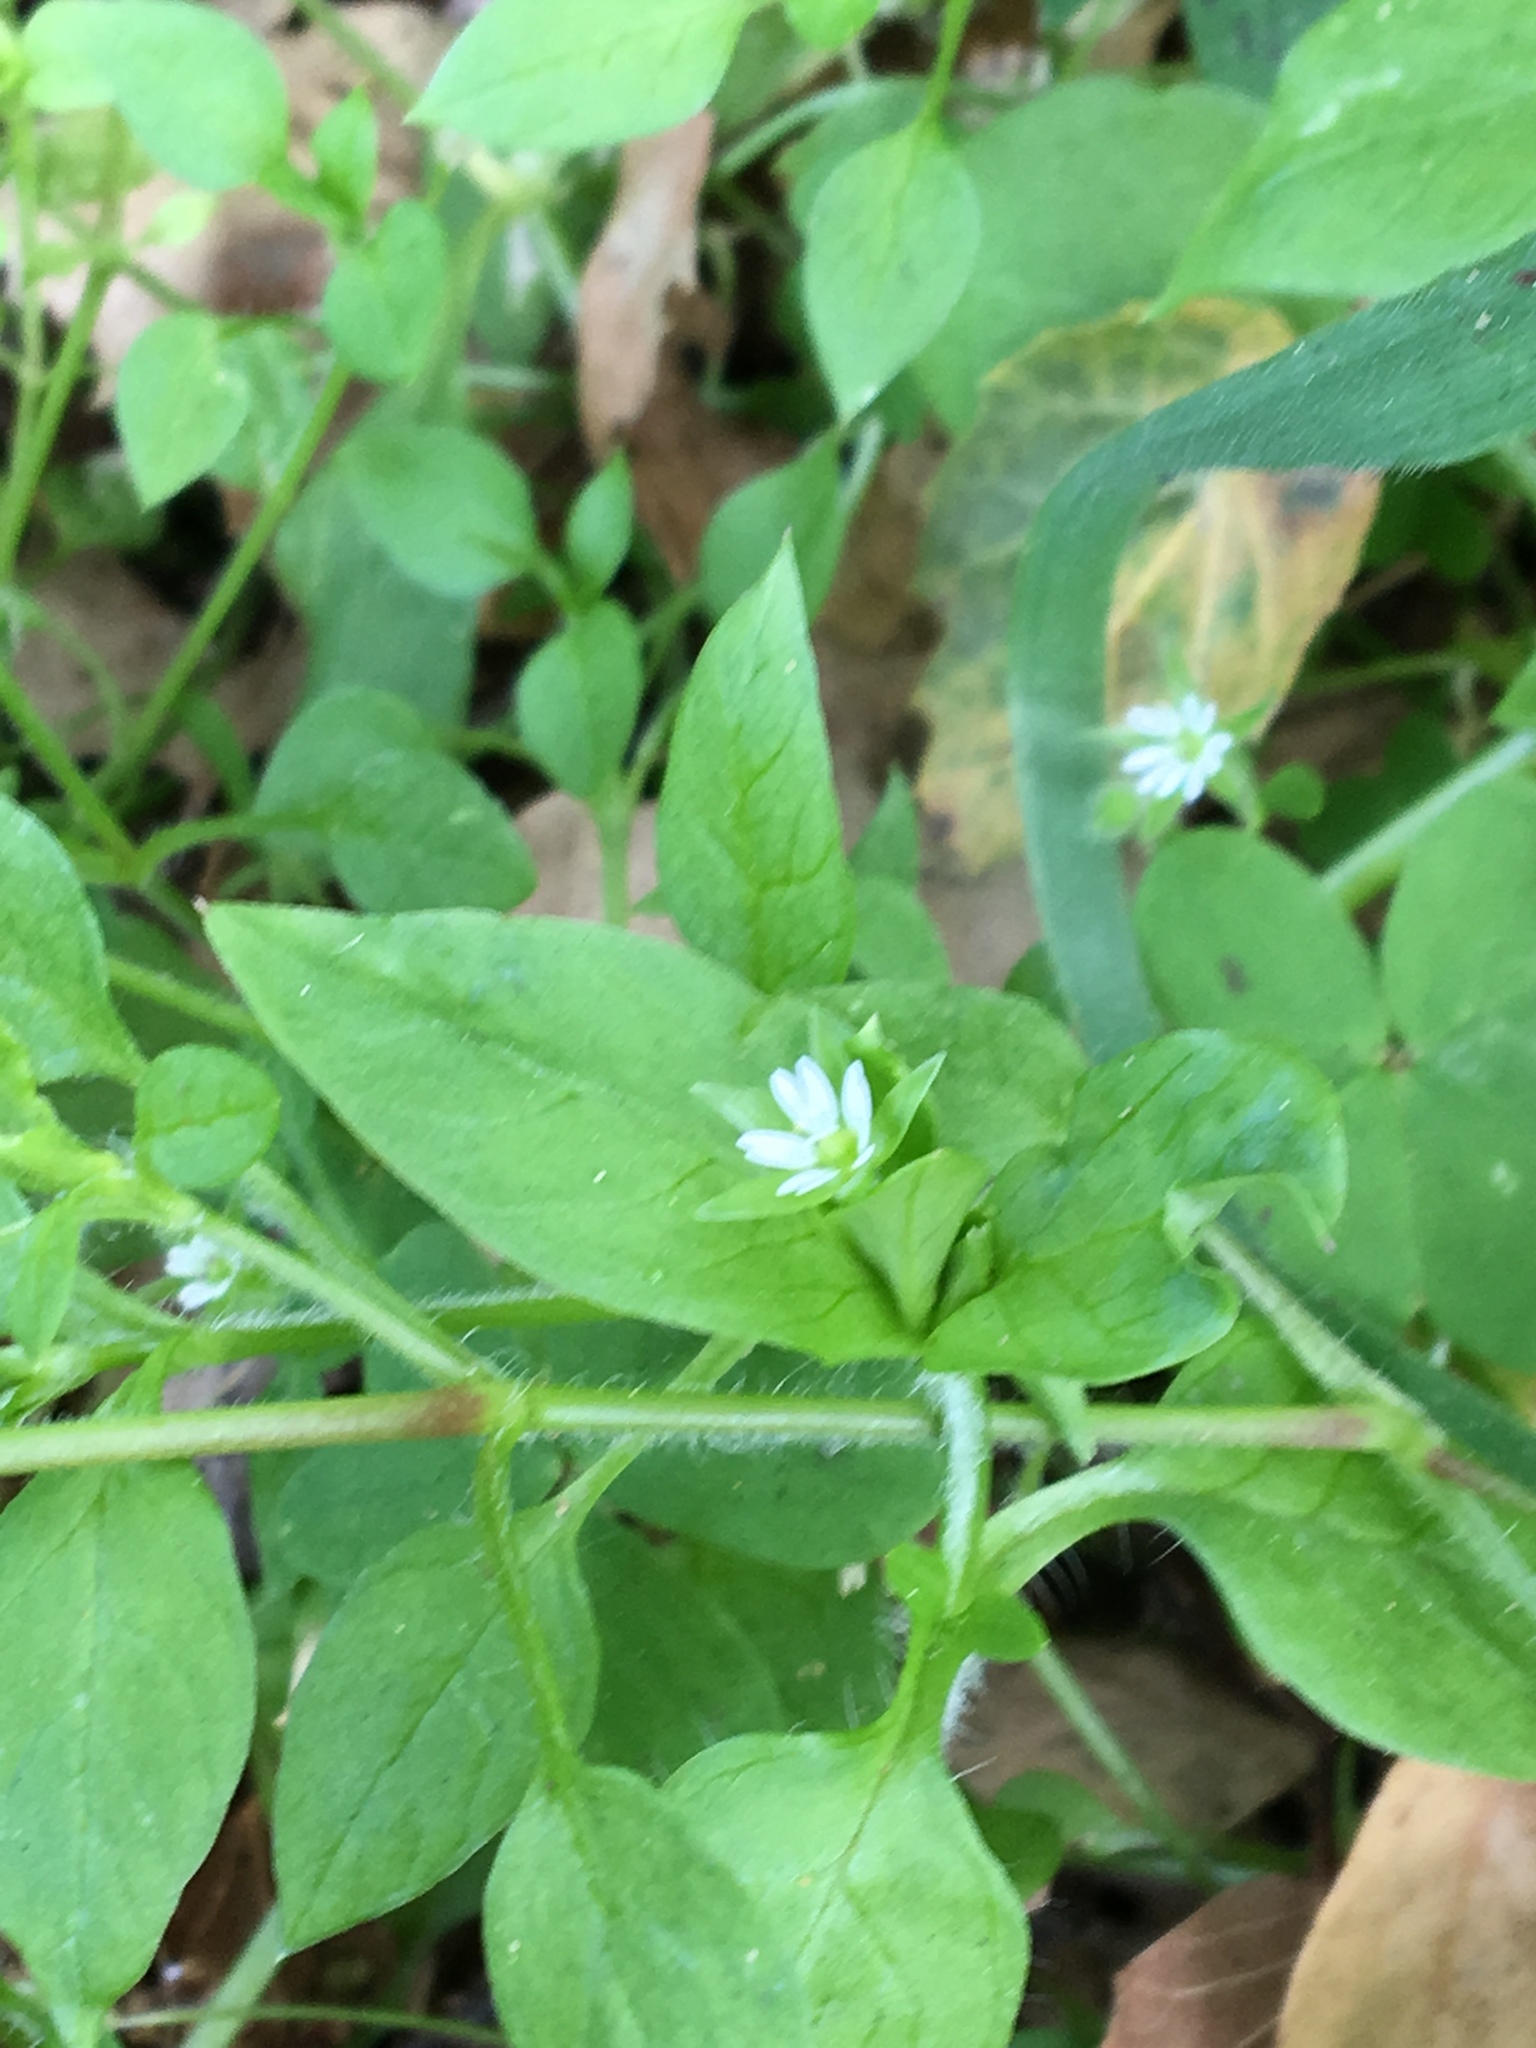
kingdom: Plantae
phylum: Tracheophyta
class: Magnoliopsida
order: Caryophyllales
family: Caryophyllaceae
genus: Stellaria
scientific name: Stellaria media
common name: Common chickweed
